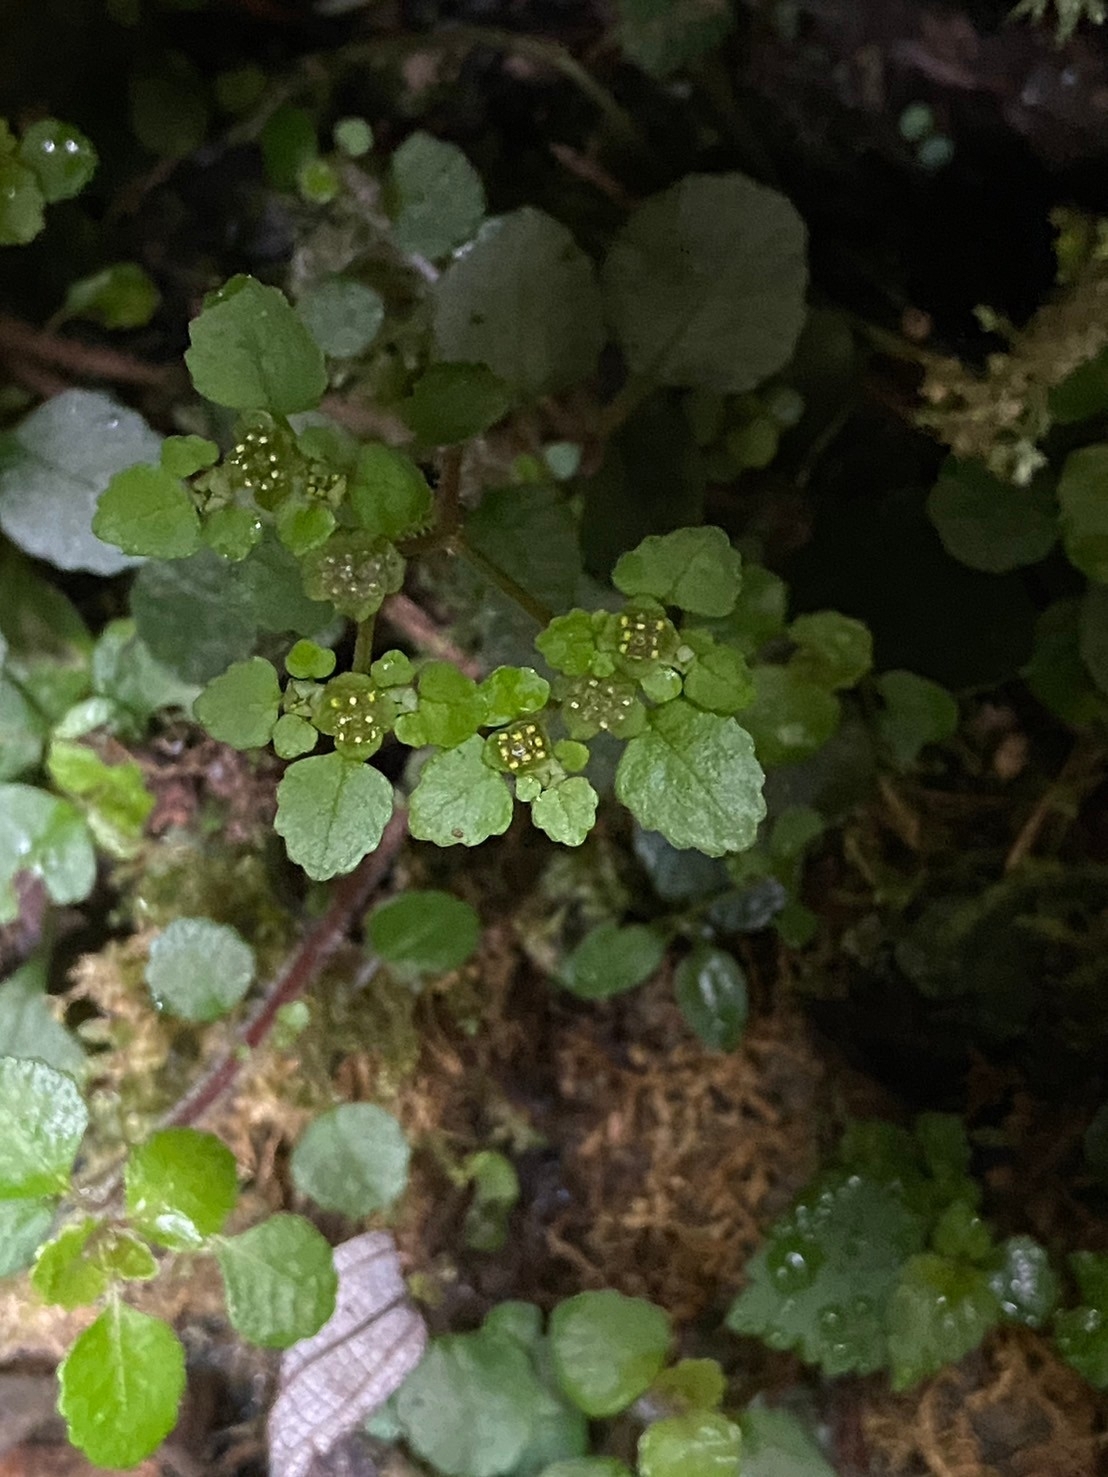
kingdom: Plantae
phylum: Tracheophyta
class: Magnoliopsida
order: Rosales
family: Urticaceae
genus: Pilea
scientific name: Pilea peploides
